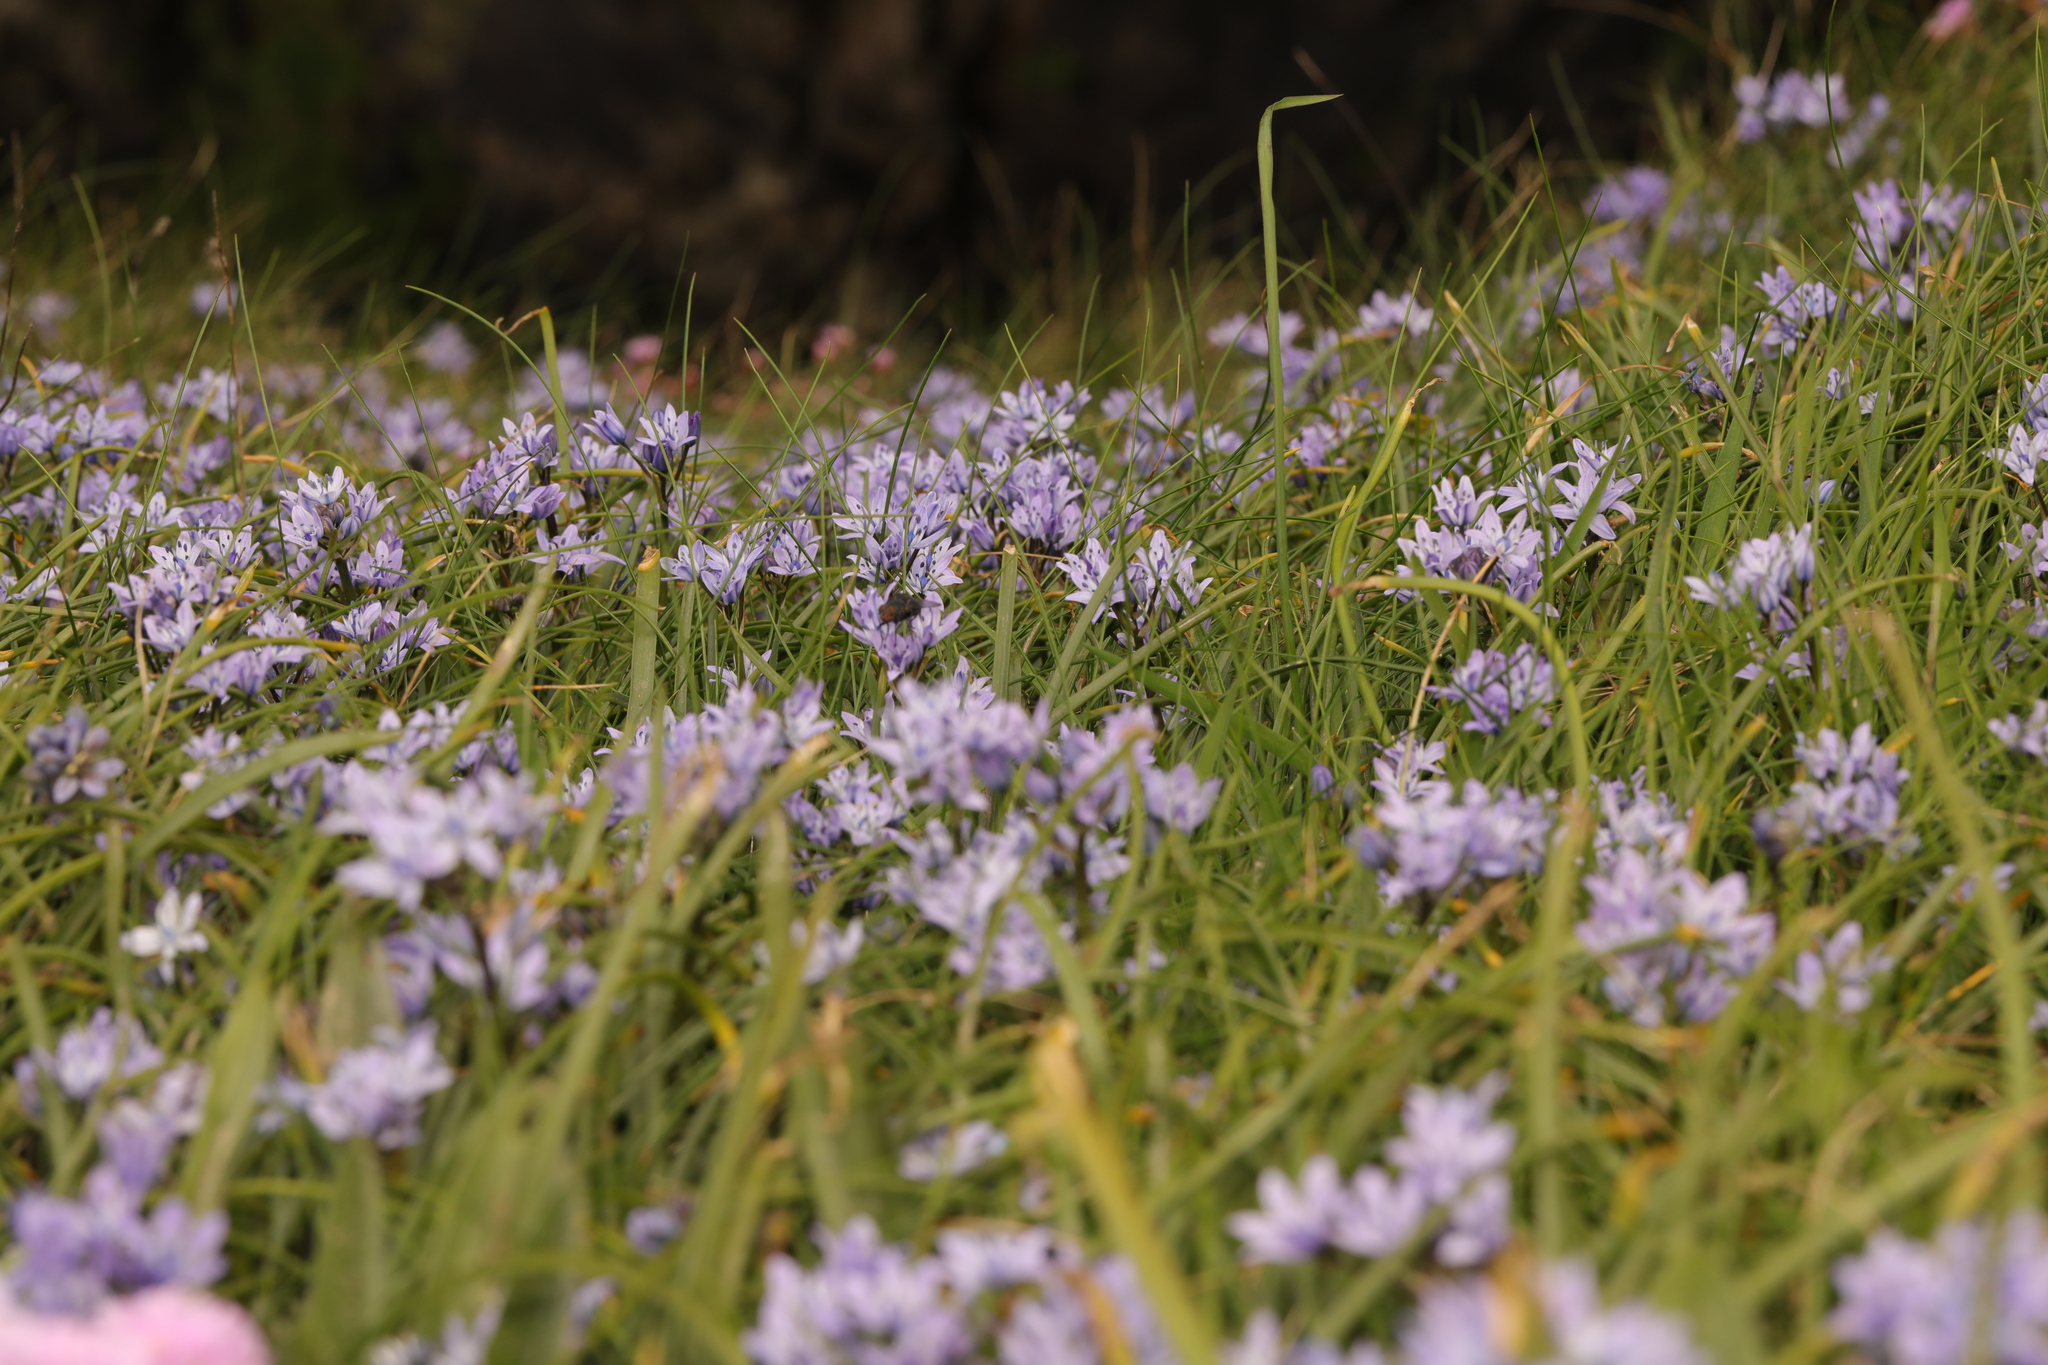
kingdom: Plantae
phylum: Tracheophyta
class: Liliopsida
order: Asparagales
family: Asparagaceae
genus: Scilla
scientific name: Scilla verna
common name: Spring squill
